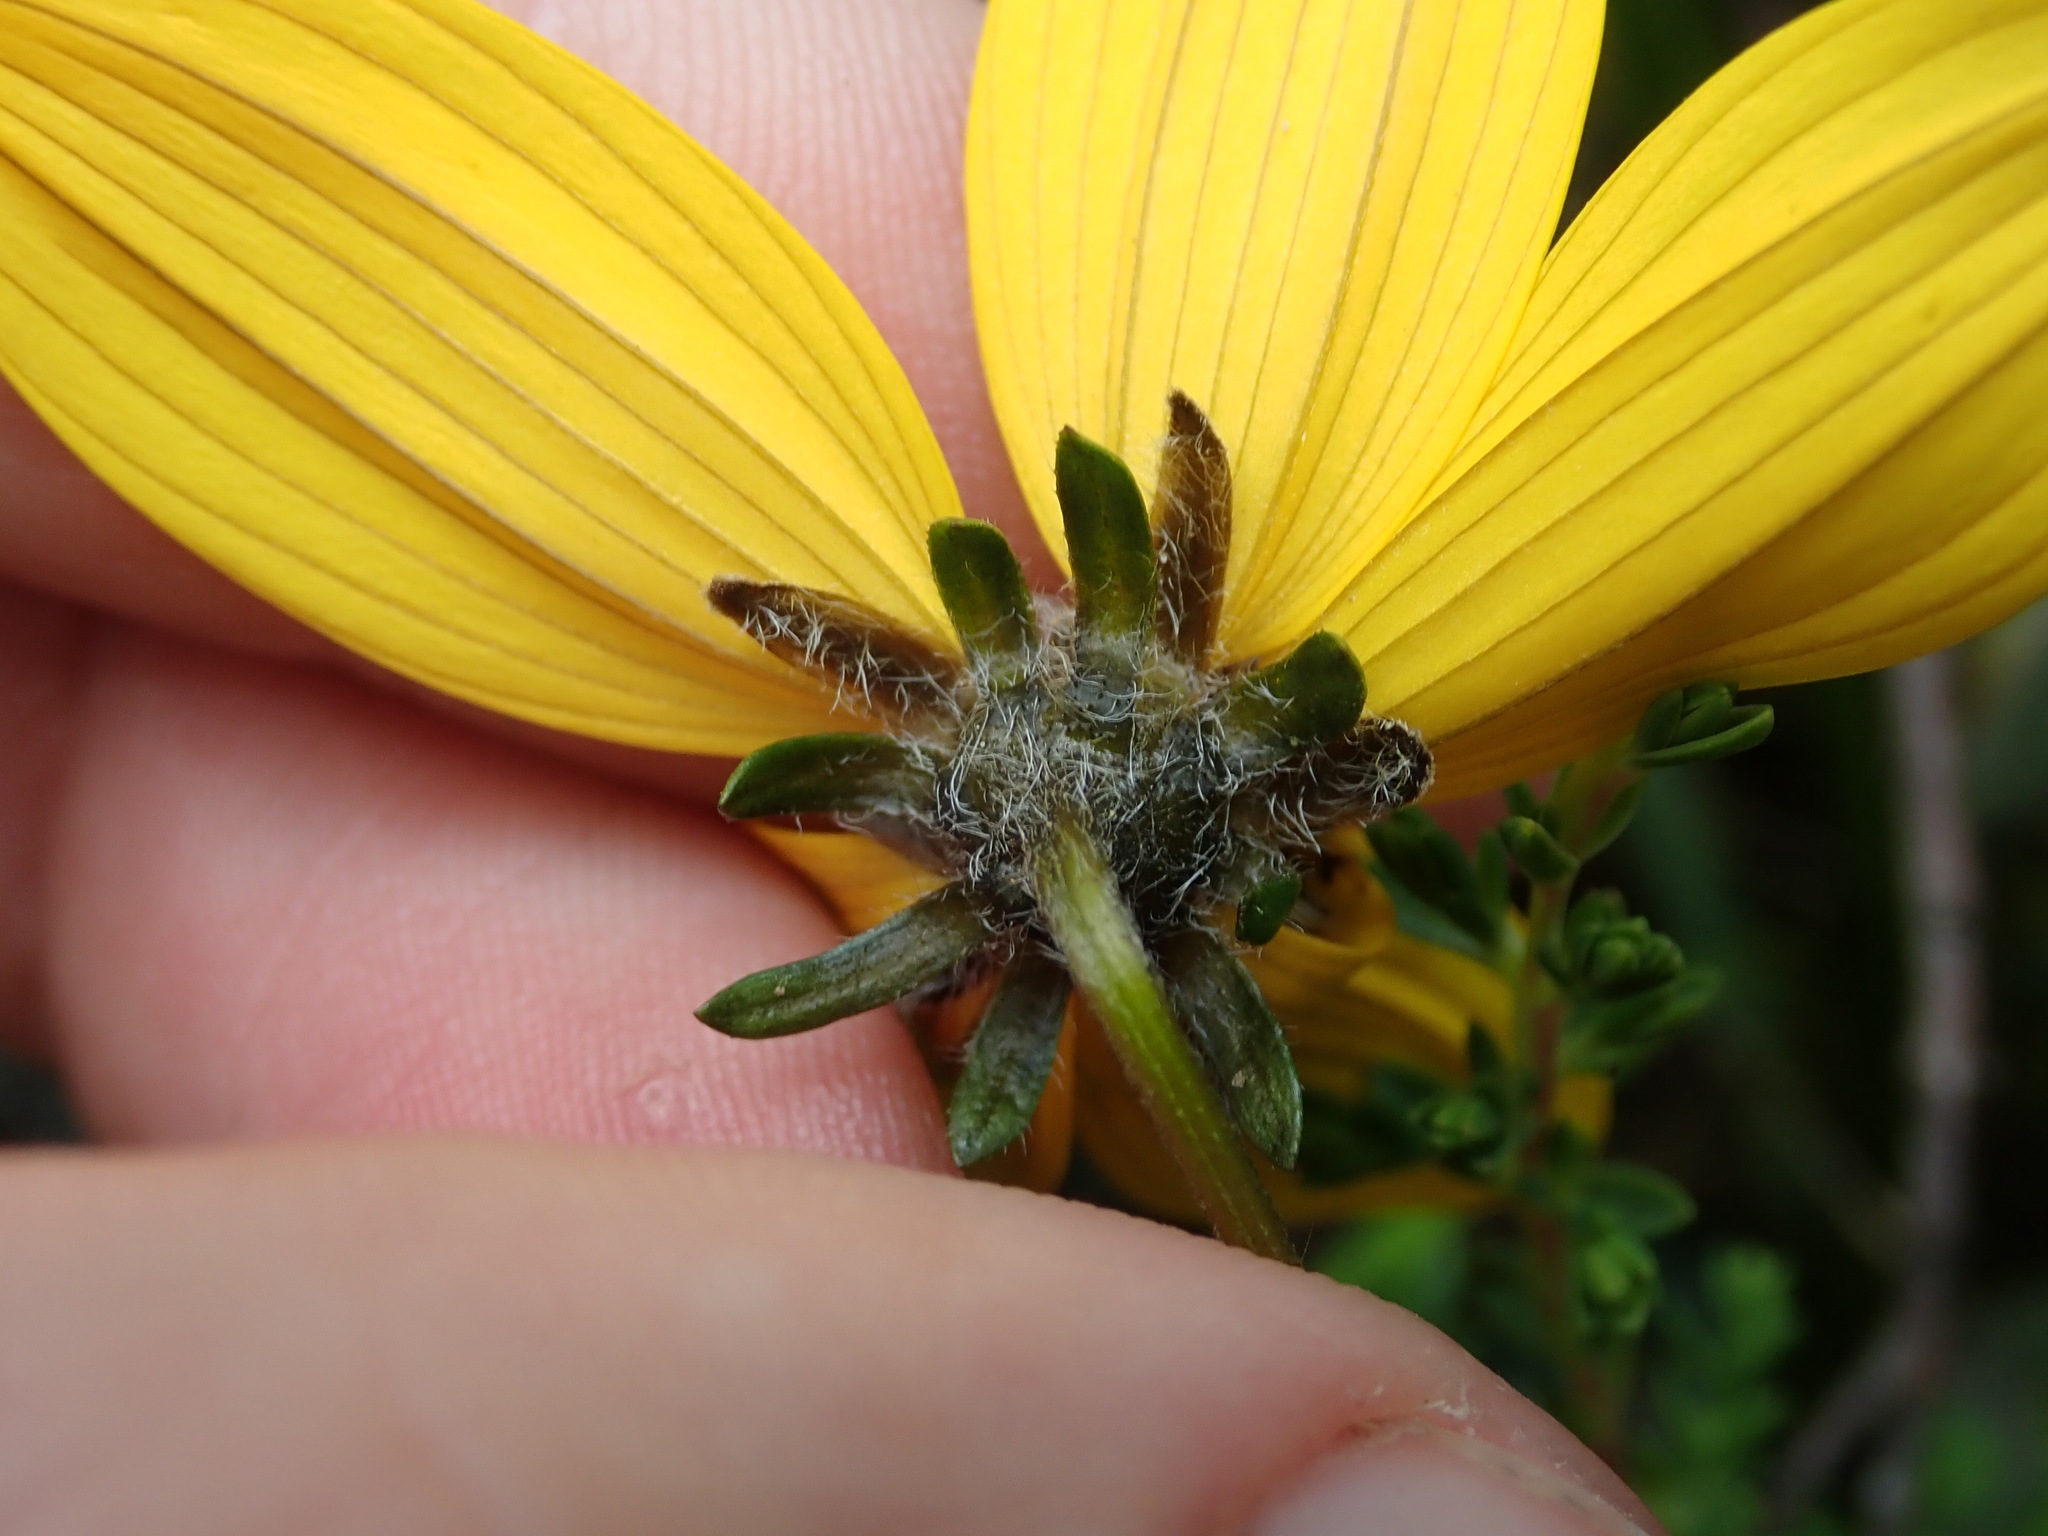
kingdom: Plantae
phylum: Tracheophyta
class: Magnoliopsida
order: Asterales
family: Asteraceae
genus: Bidens
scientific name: Bidens triplinervia
